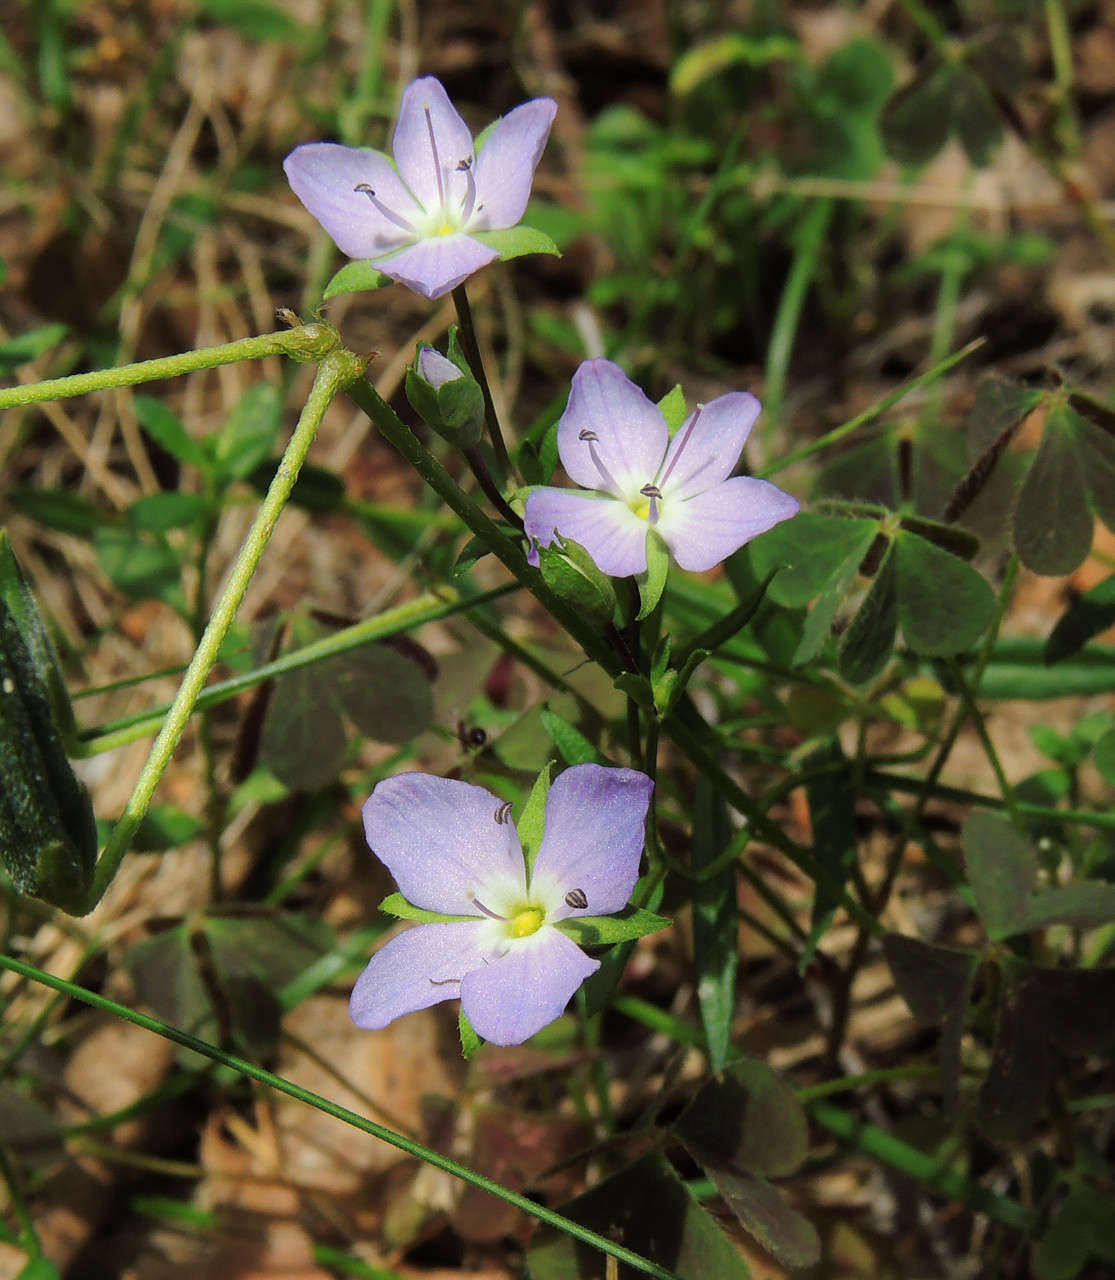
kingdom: Plantae
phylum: Tracheophyta
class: Magnoliopsida
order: Lamiales
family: Plantaginaceae
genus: Veronica
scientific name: Veronica gracilis
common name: Slender speedwell
